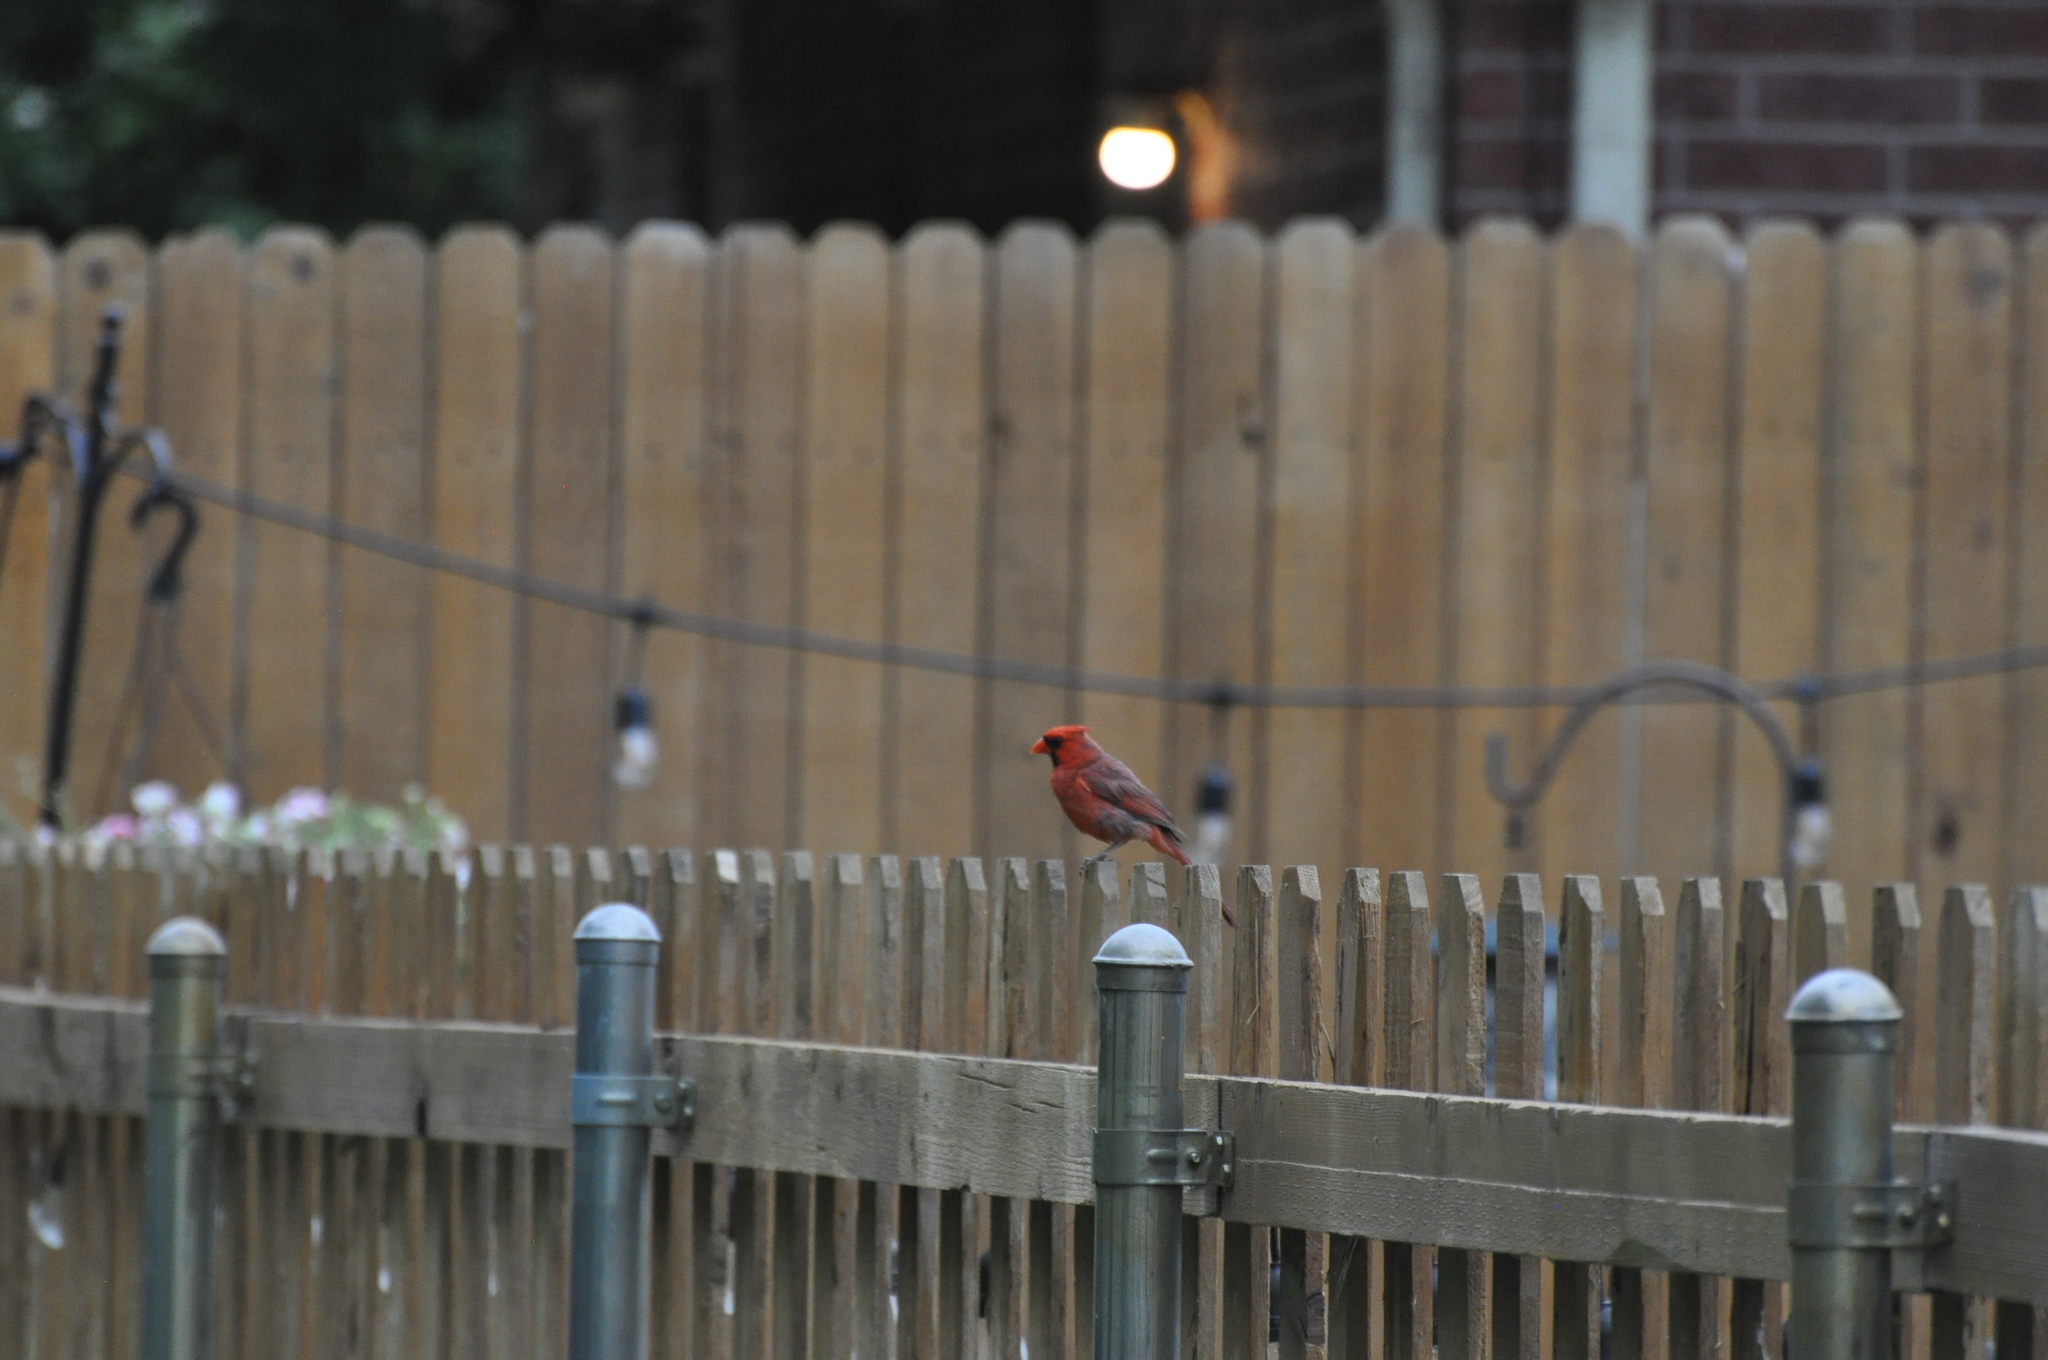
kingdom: Animalia
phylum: Chordata
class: Aves
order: Passeriformes
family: Cardinalidae
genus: Cardinalis
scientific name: Cardinalis cardinalis
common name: Northern cardinal
